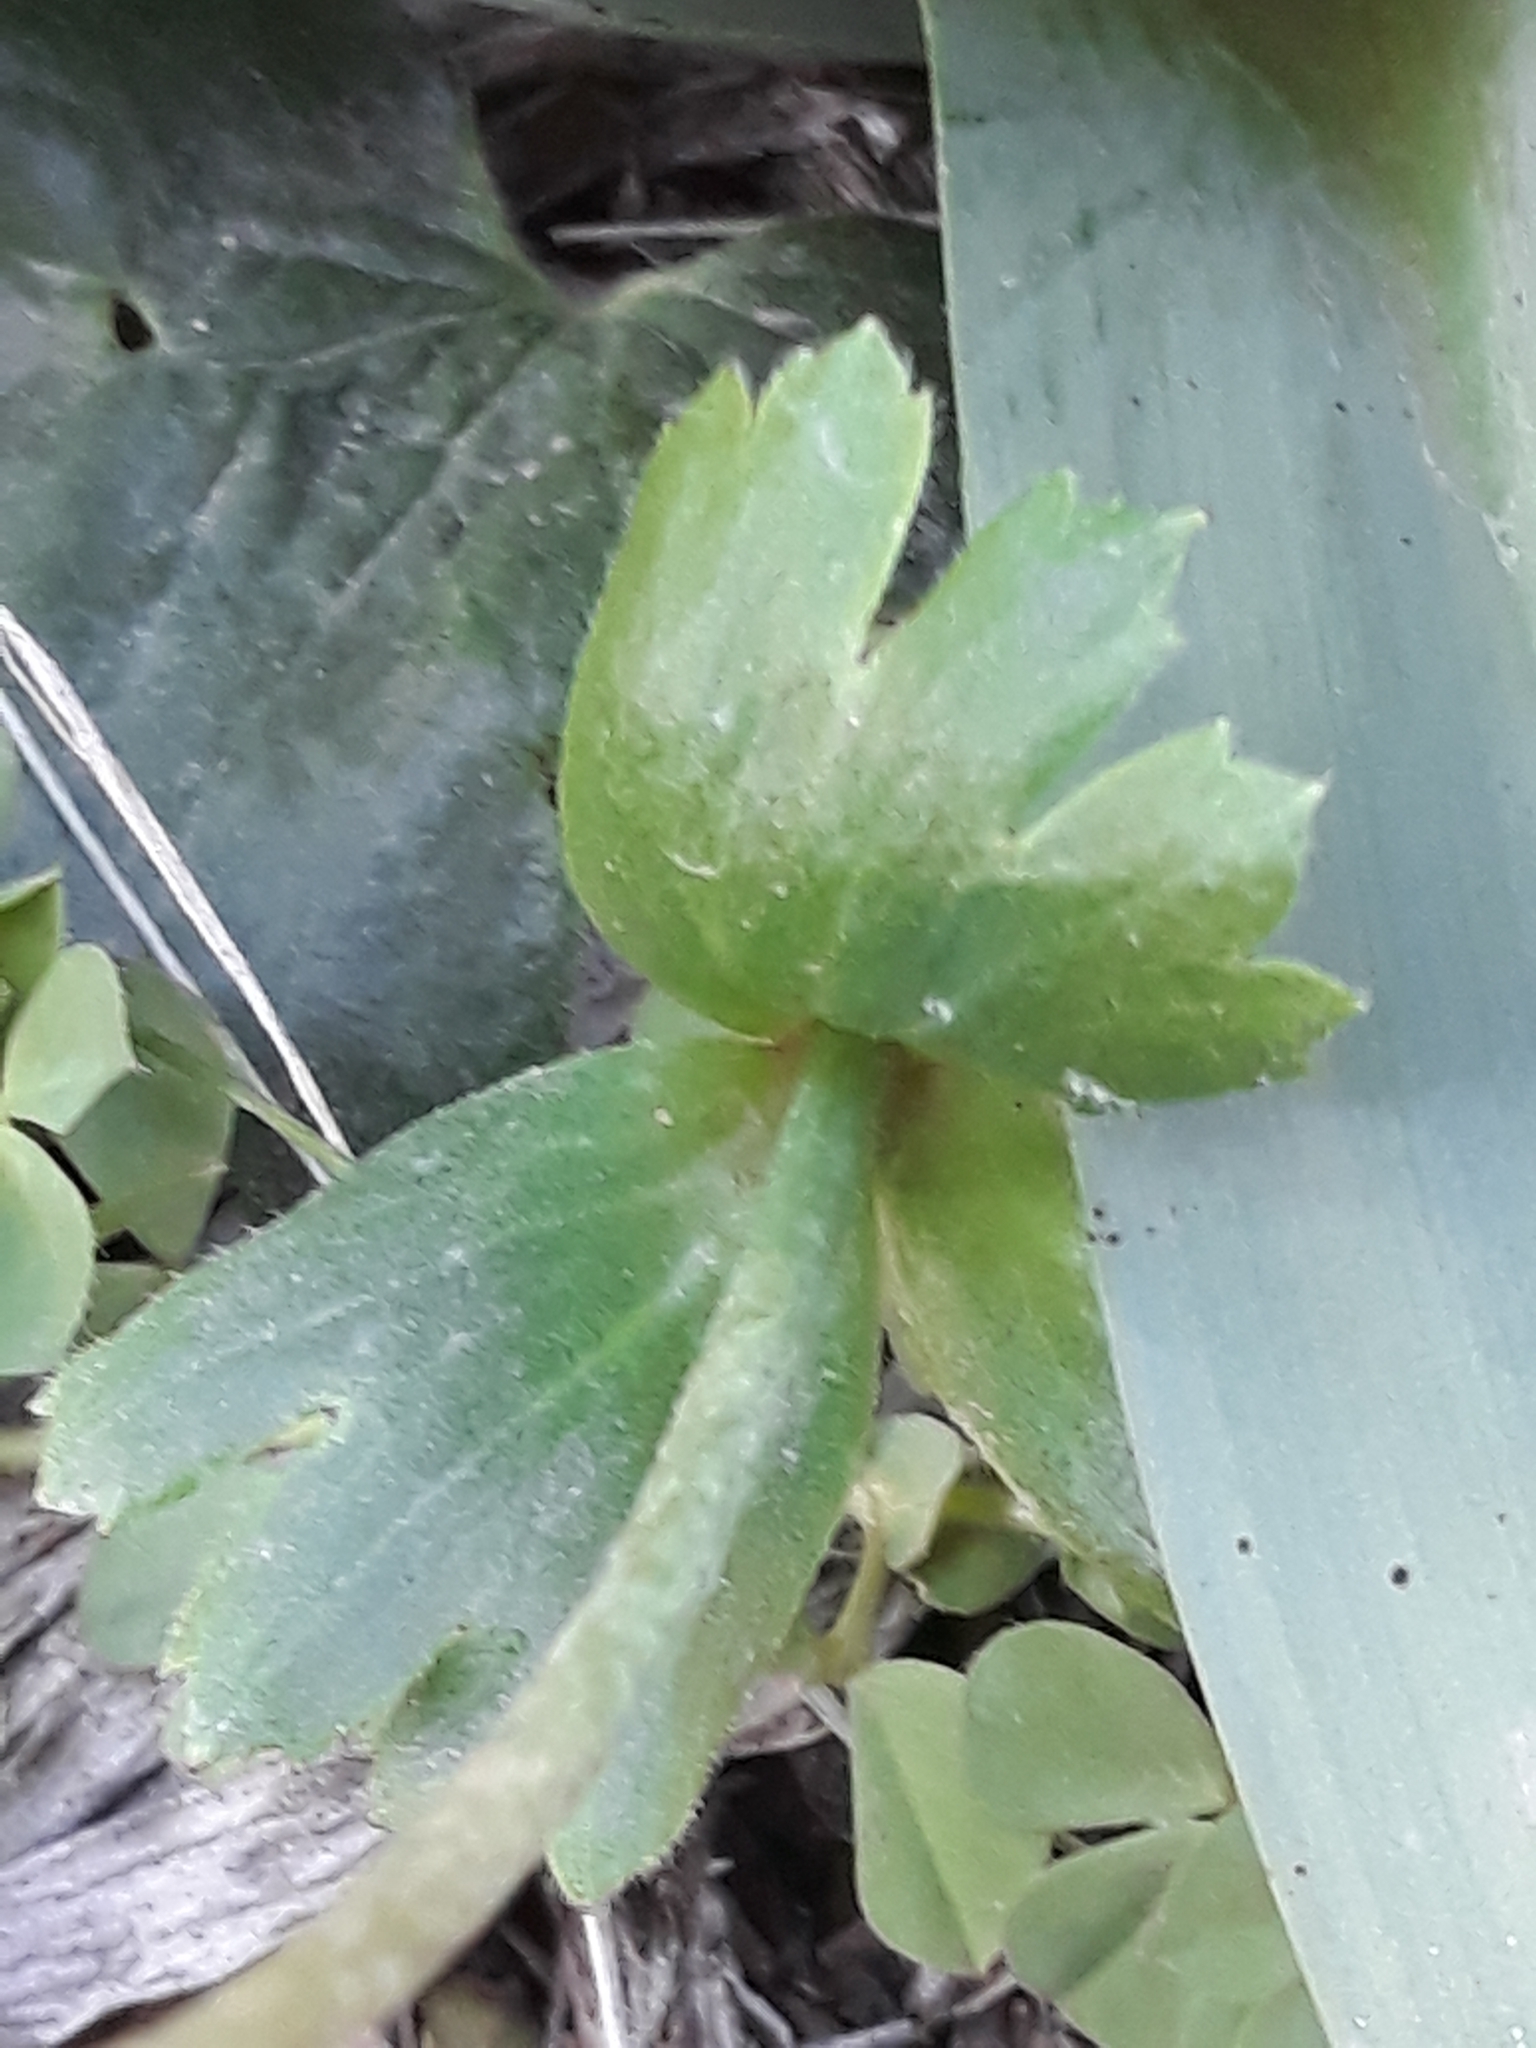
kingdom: Plantae
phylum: Tracheophyta
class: Magnoliopsida
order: Ranunculales
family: Ranunculaceae
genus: Anemone
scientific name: Anemone palmata
